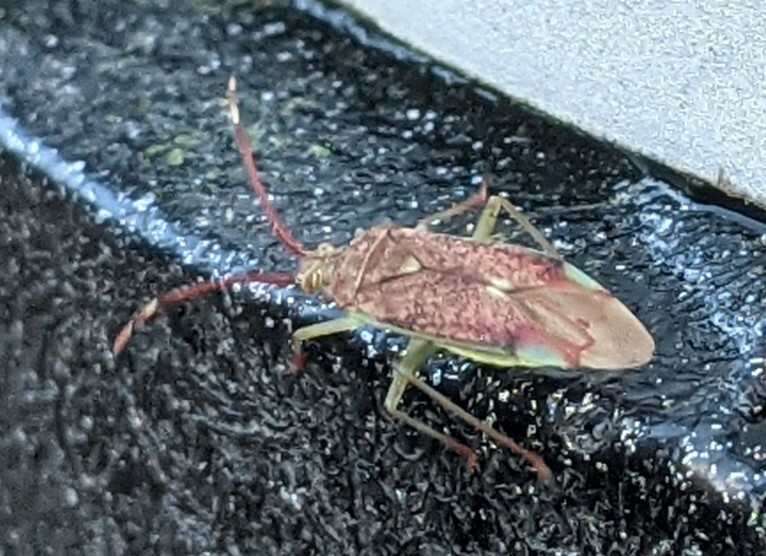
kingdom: Animalia
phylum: Arthropoda
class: Insecta
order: Hemiptera
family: Miridae
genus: Pantilius
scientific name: Pantilius tunicatus
